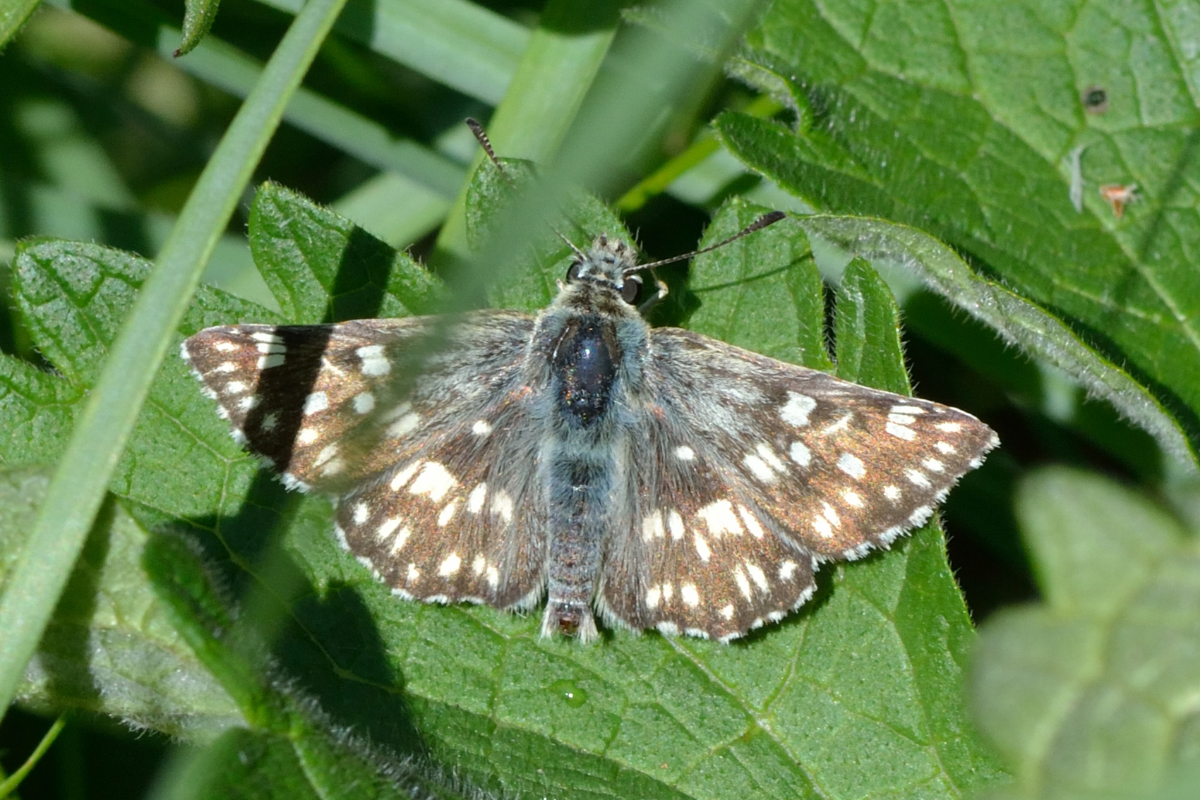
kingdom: Animalia
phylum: Arthropoda
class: Insecta
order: Lepidoptera
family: Hesperiidae
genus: Syrichtus
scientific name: Syrichtus tessellum
